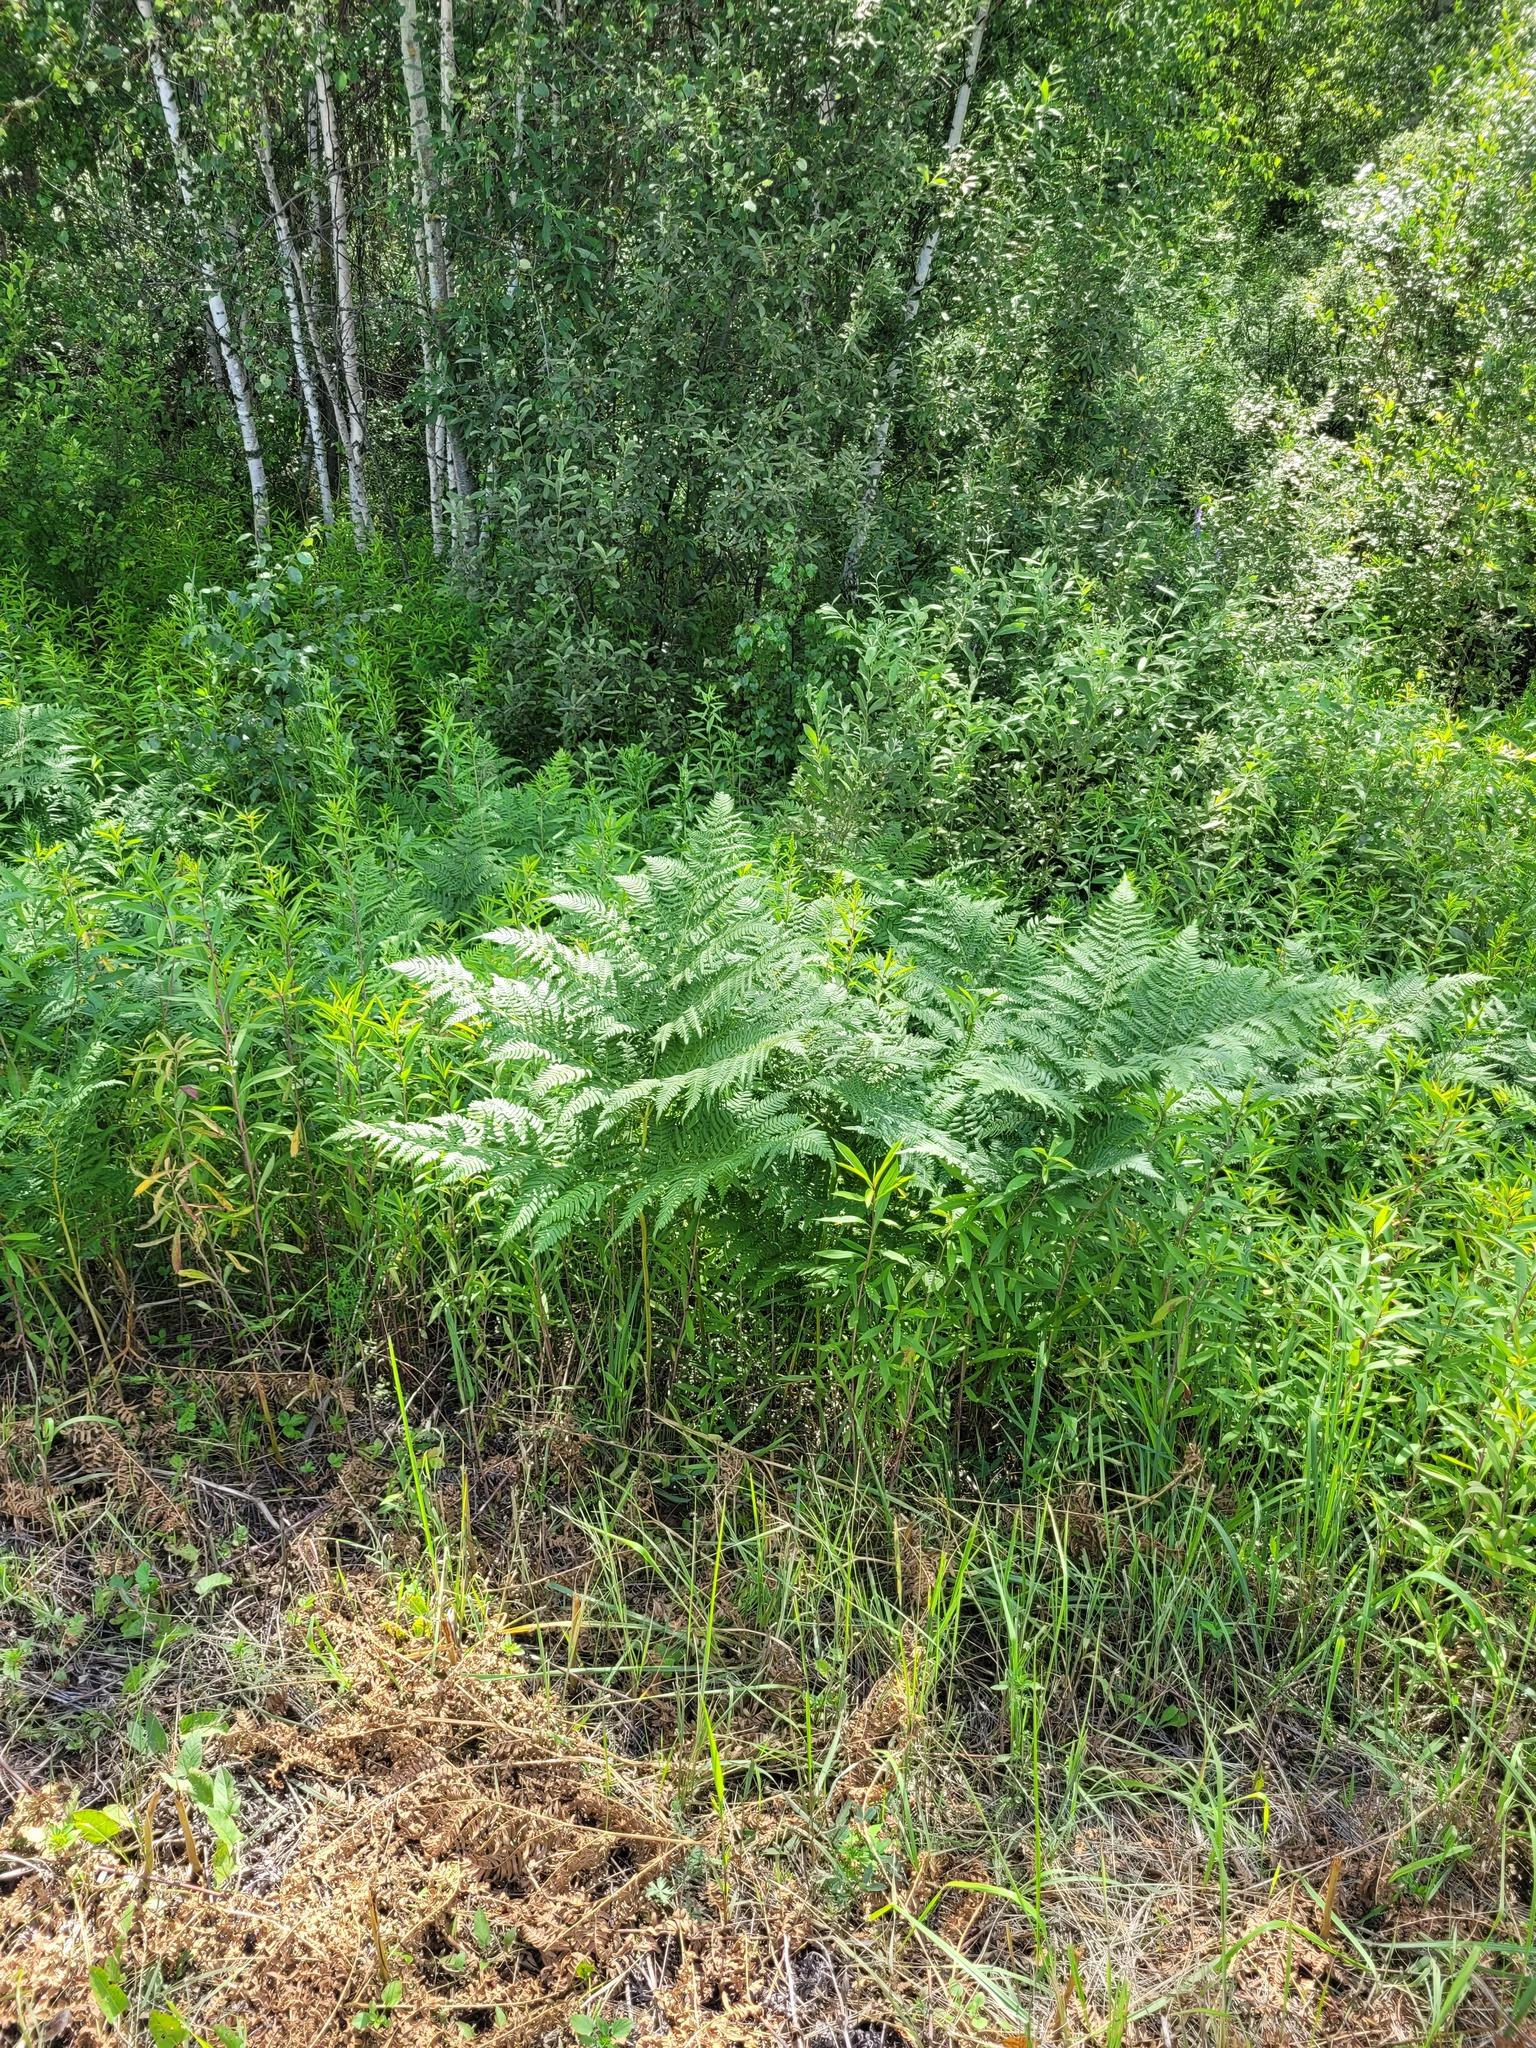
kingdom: Plantae
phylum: Tracheophyta
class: Polypodiopsida
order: Polypodiales
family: Dennstaedtiaceae
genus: Pteridium
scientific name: Pteridium aquilinum
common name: Bracken
